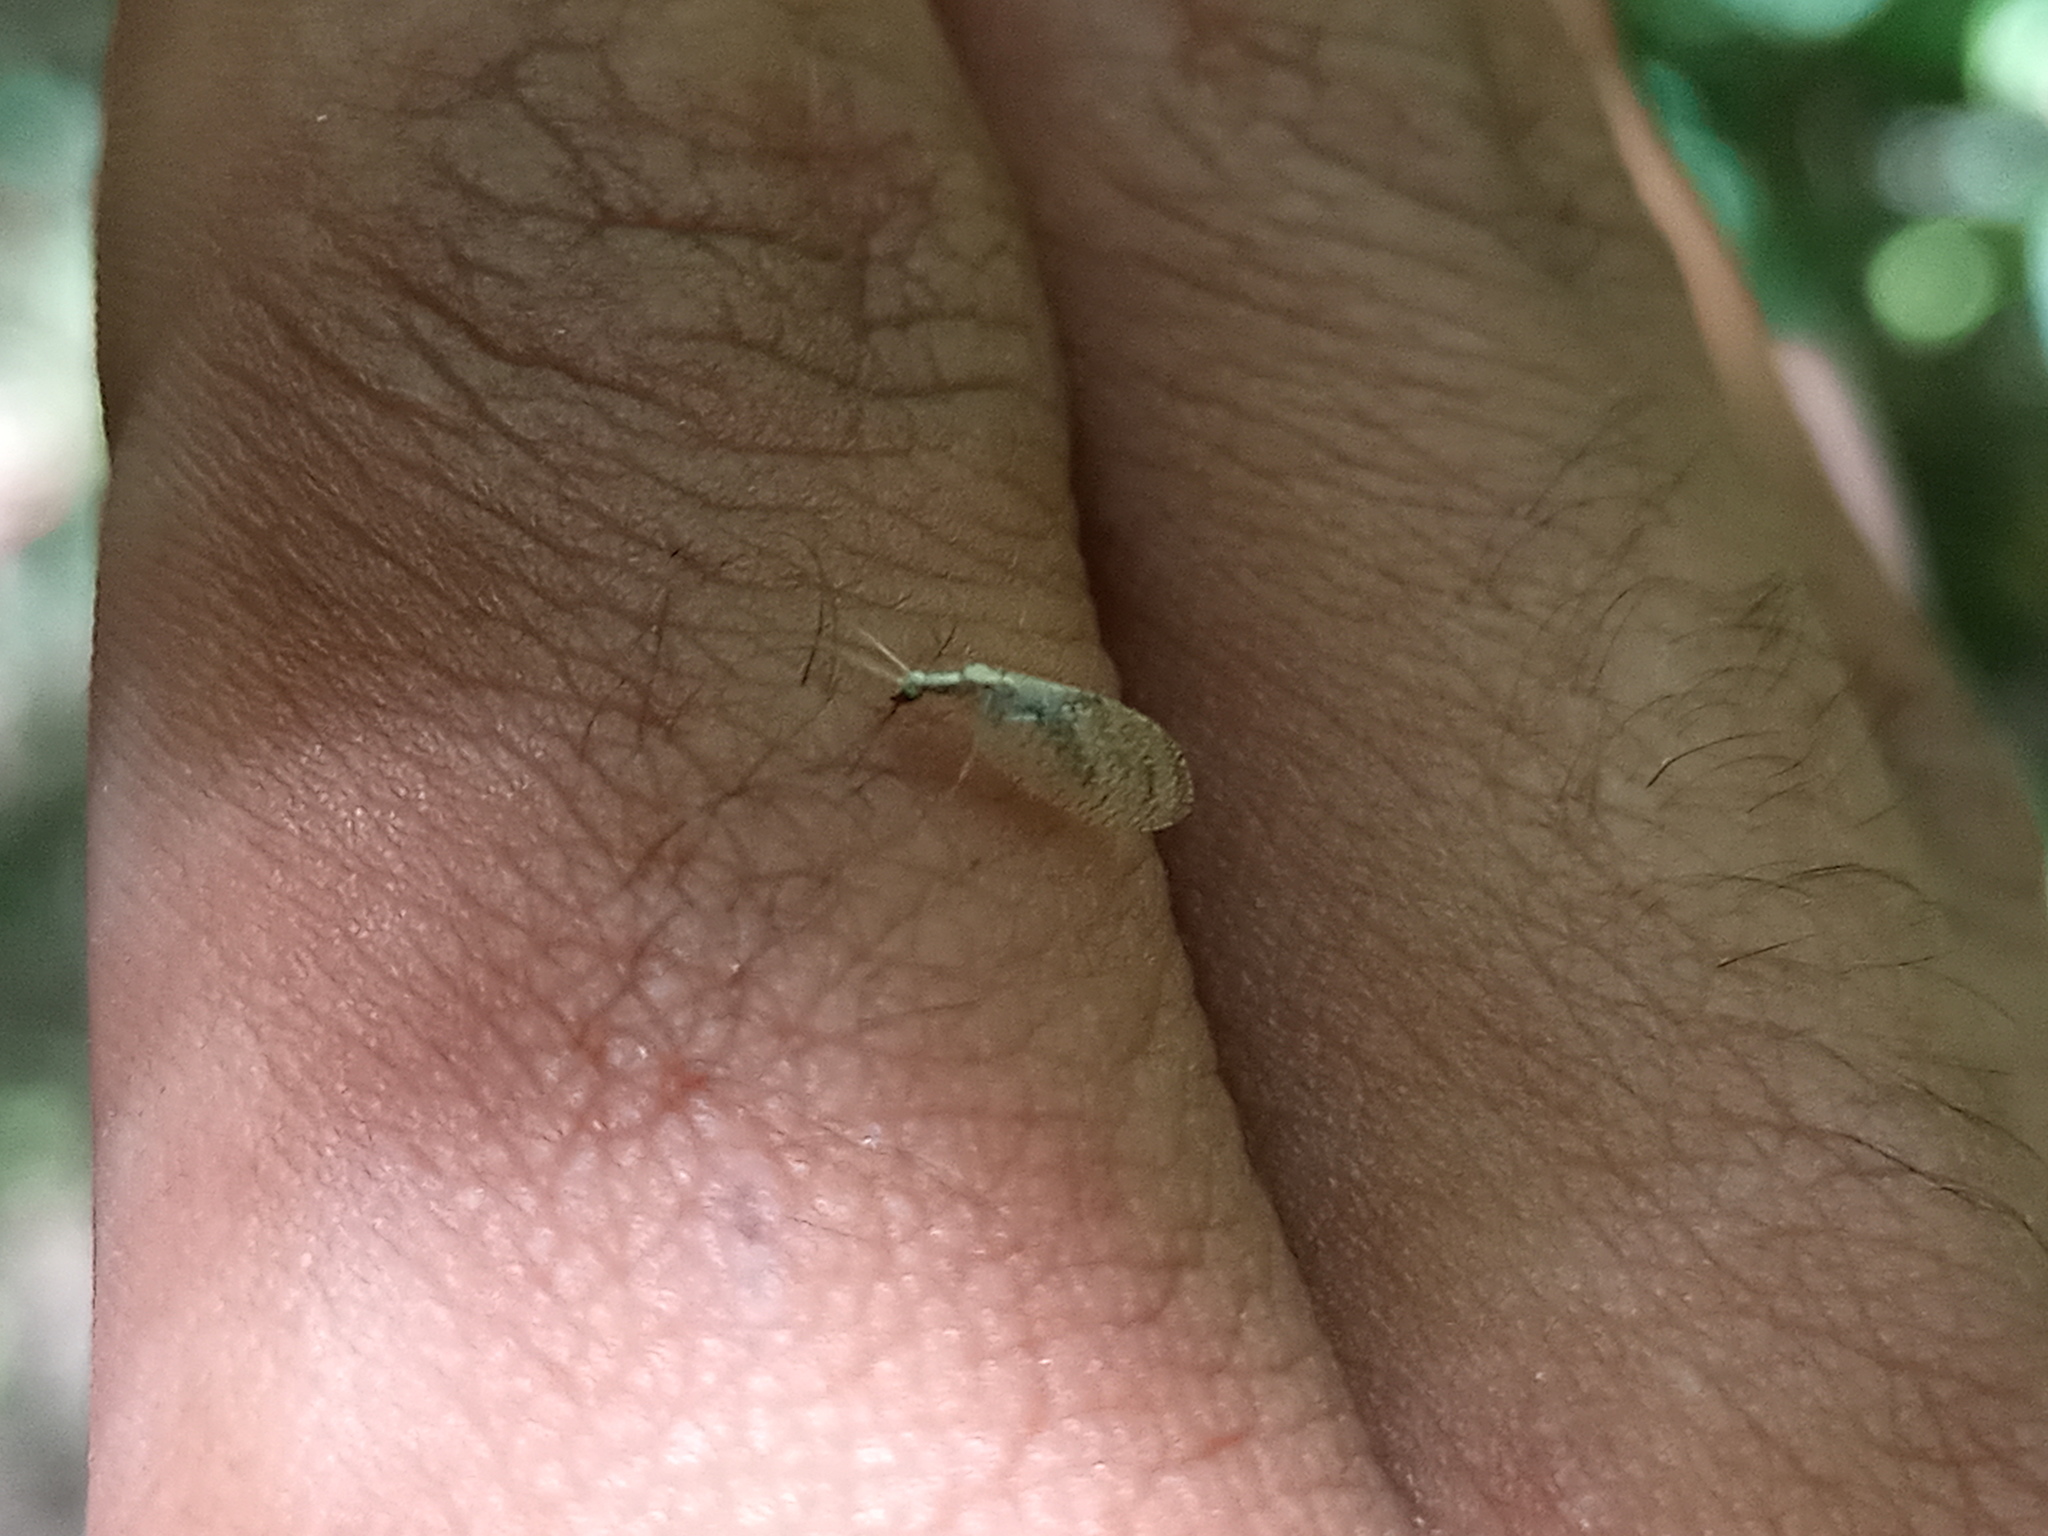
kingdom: Animalia
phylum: Arthropoda
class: Insecta
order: Neuroptera
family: Hemerobiidae
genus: Hemerobius
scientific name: Hemerobius bolivari
